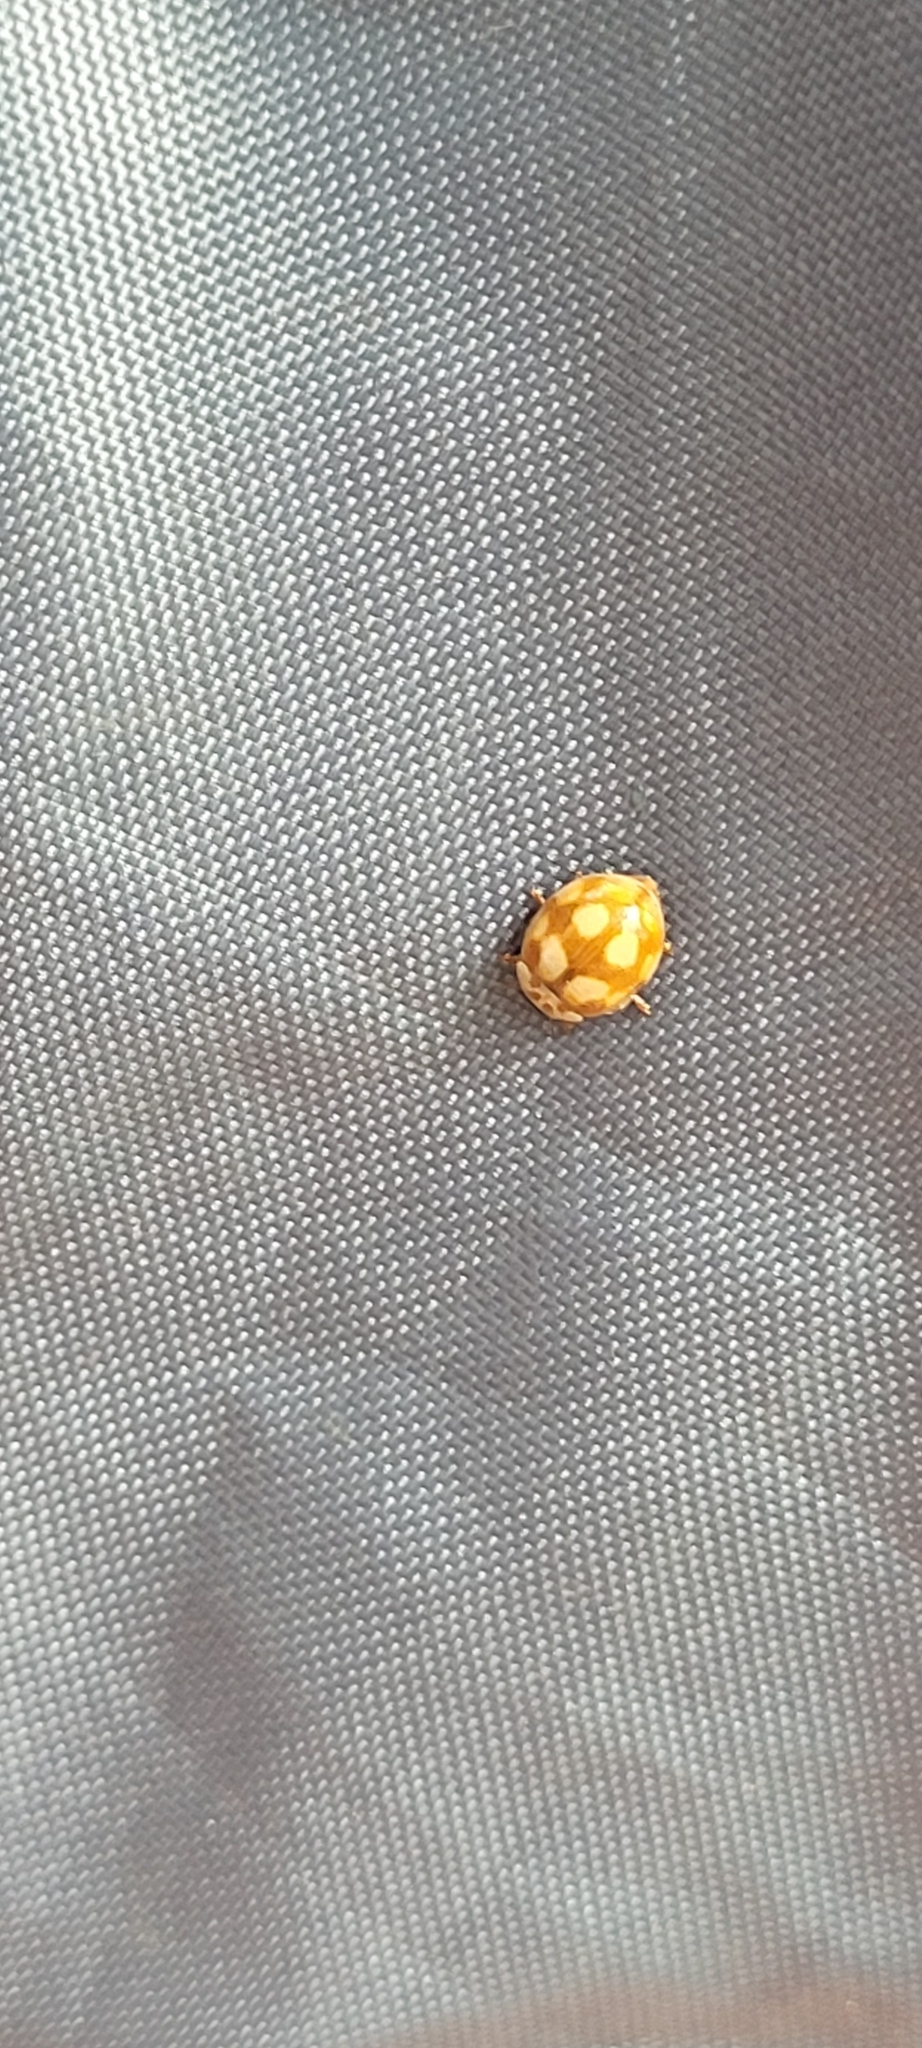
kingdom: Animalia
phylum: Arthropoda
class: Insecta
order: Coleoptera
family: Coccinellidae
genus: Adalia
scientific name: Adalia decempunctata
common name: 10-spot ladybird
